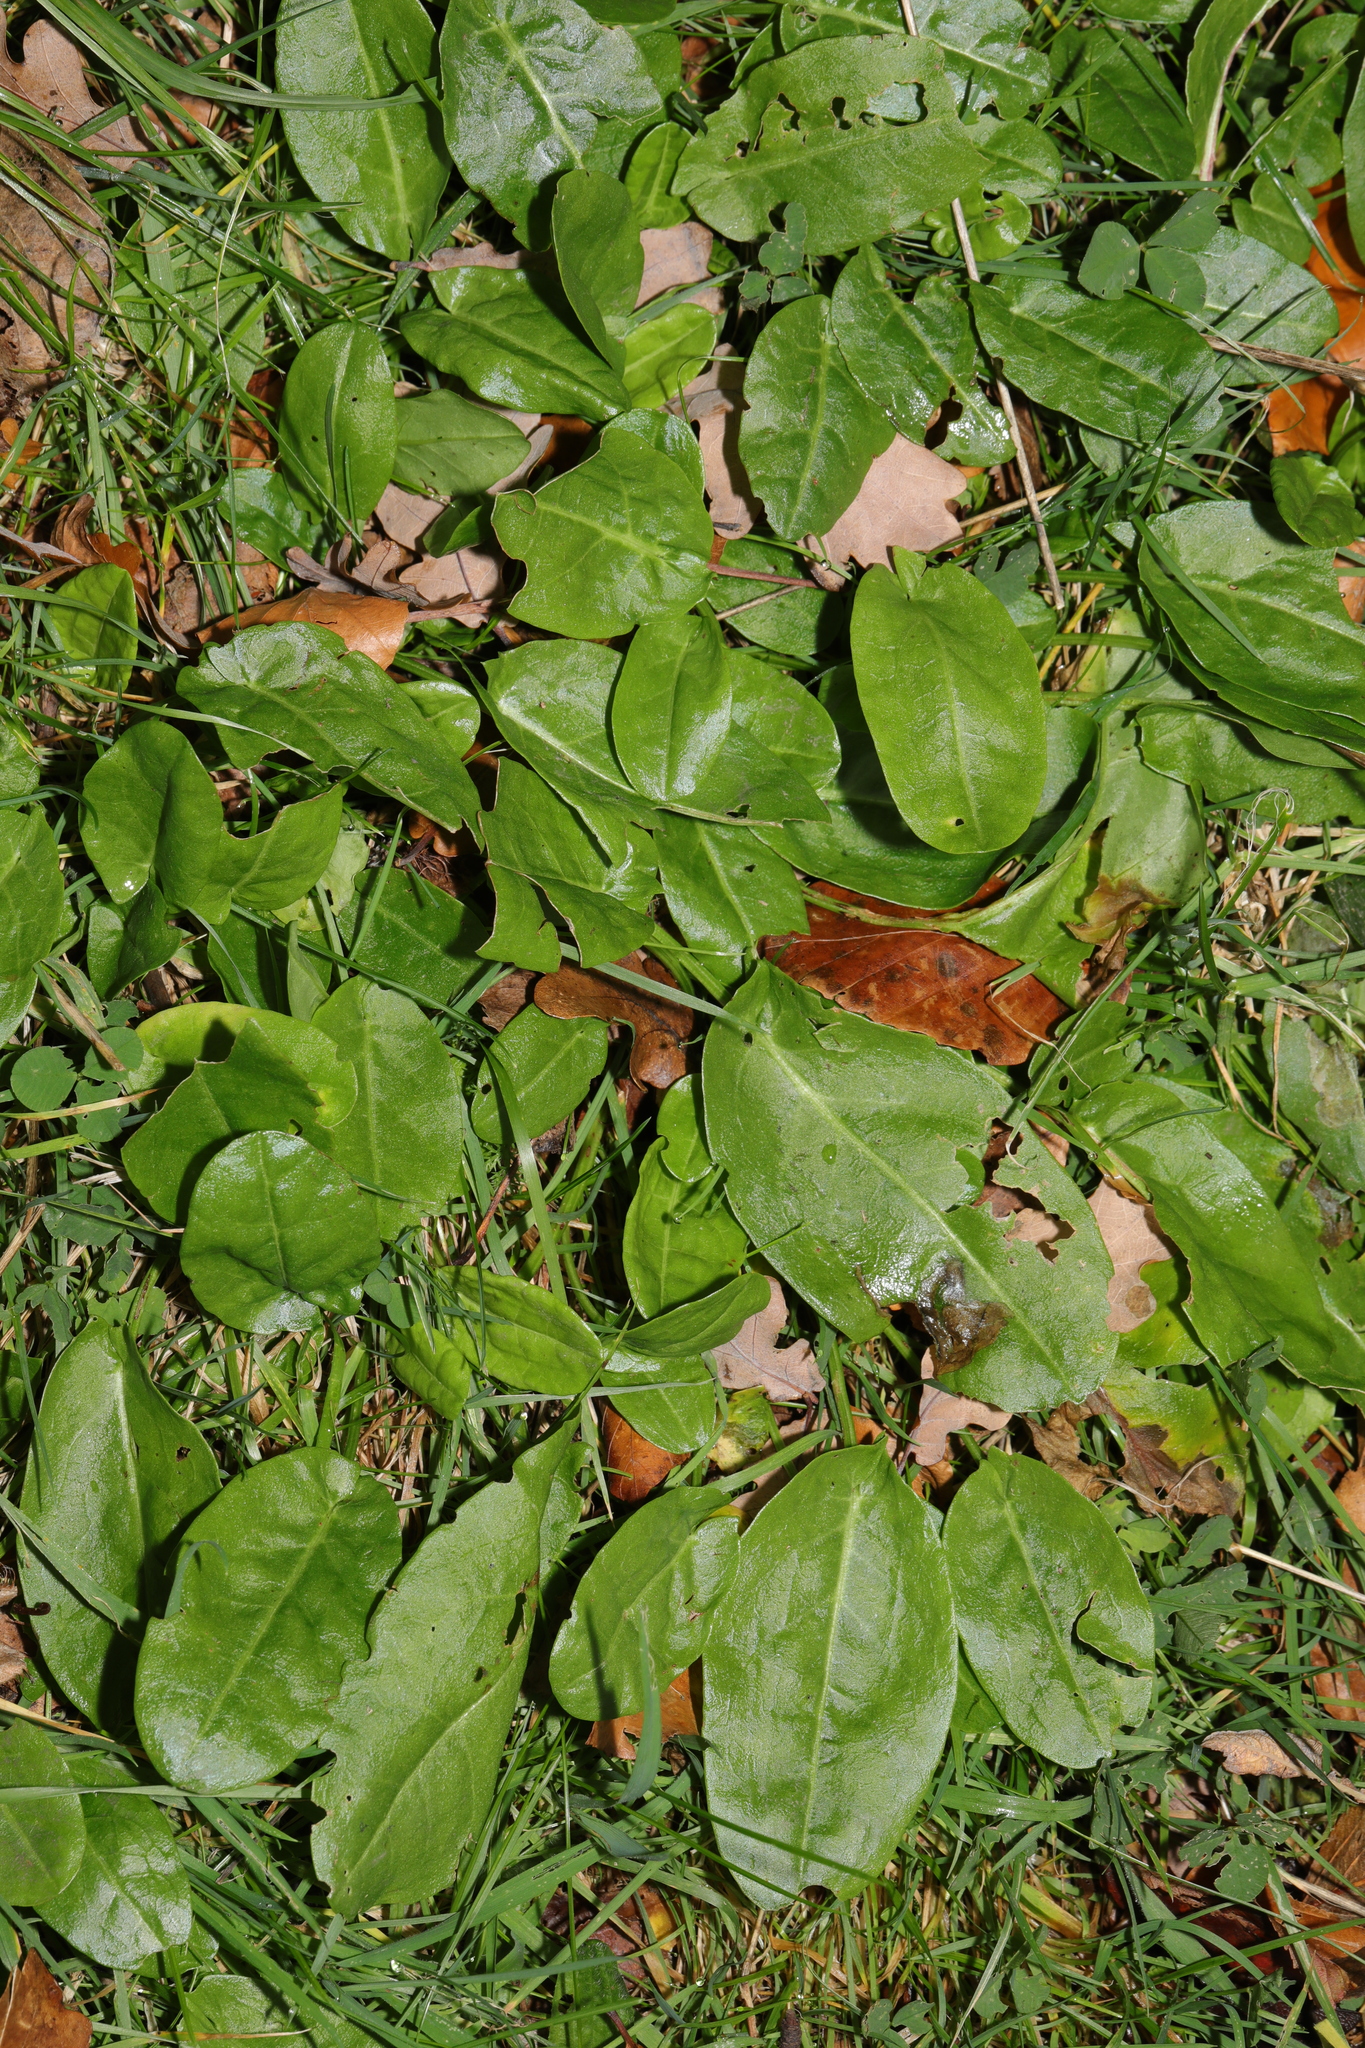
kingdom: Plantae
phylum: Tracheophyta
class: Magnoliopsida
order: Caryophyllales
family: Polygonaceae
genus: Rumex
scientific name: Rumex acetosa
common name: Garden sorrel
